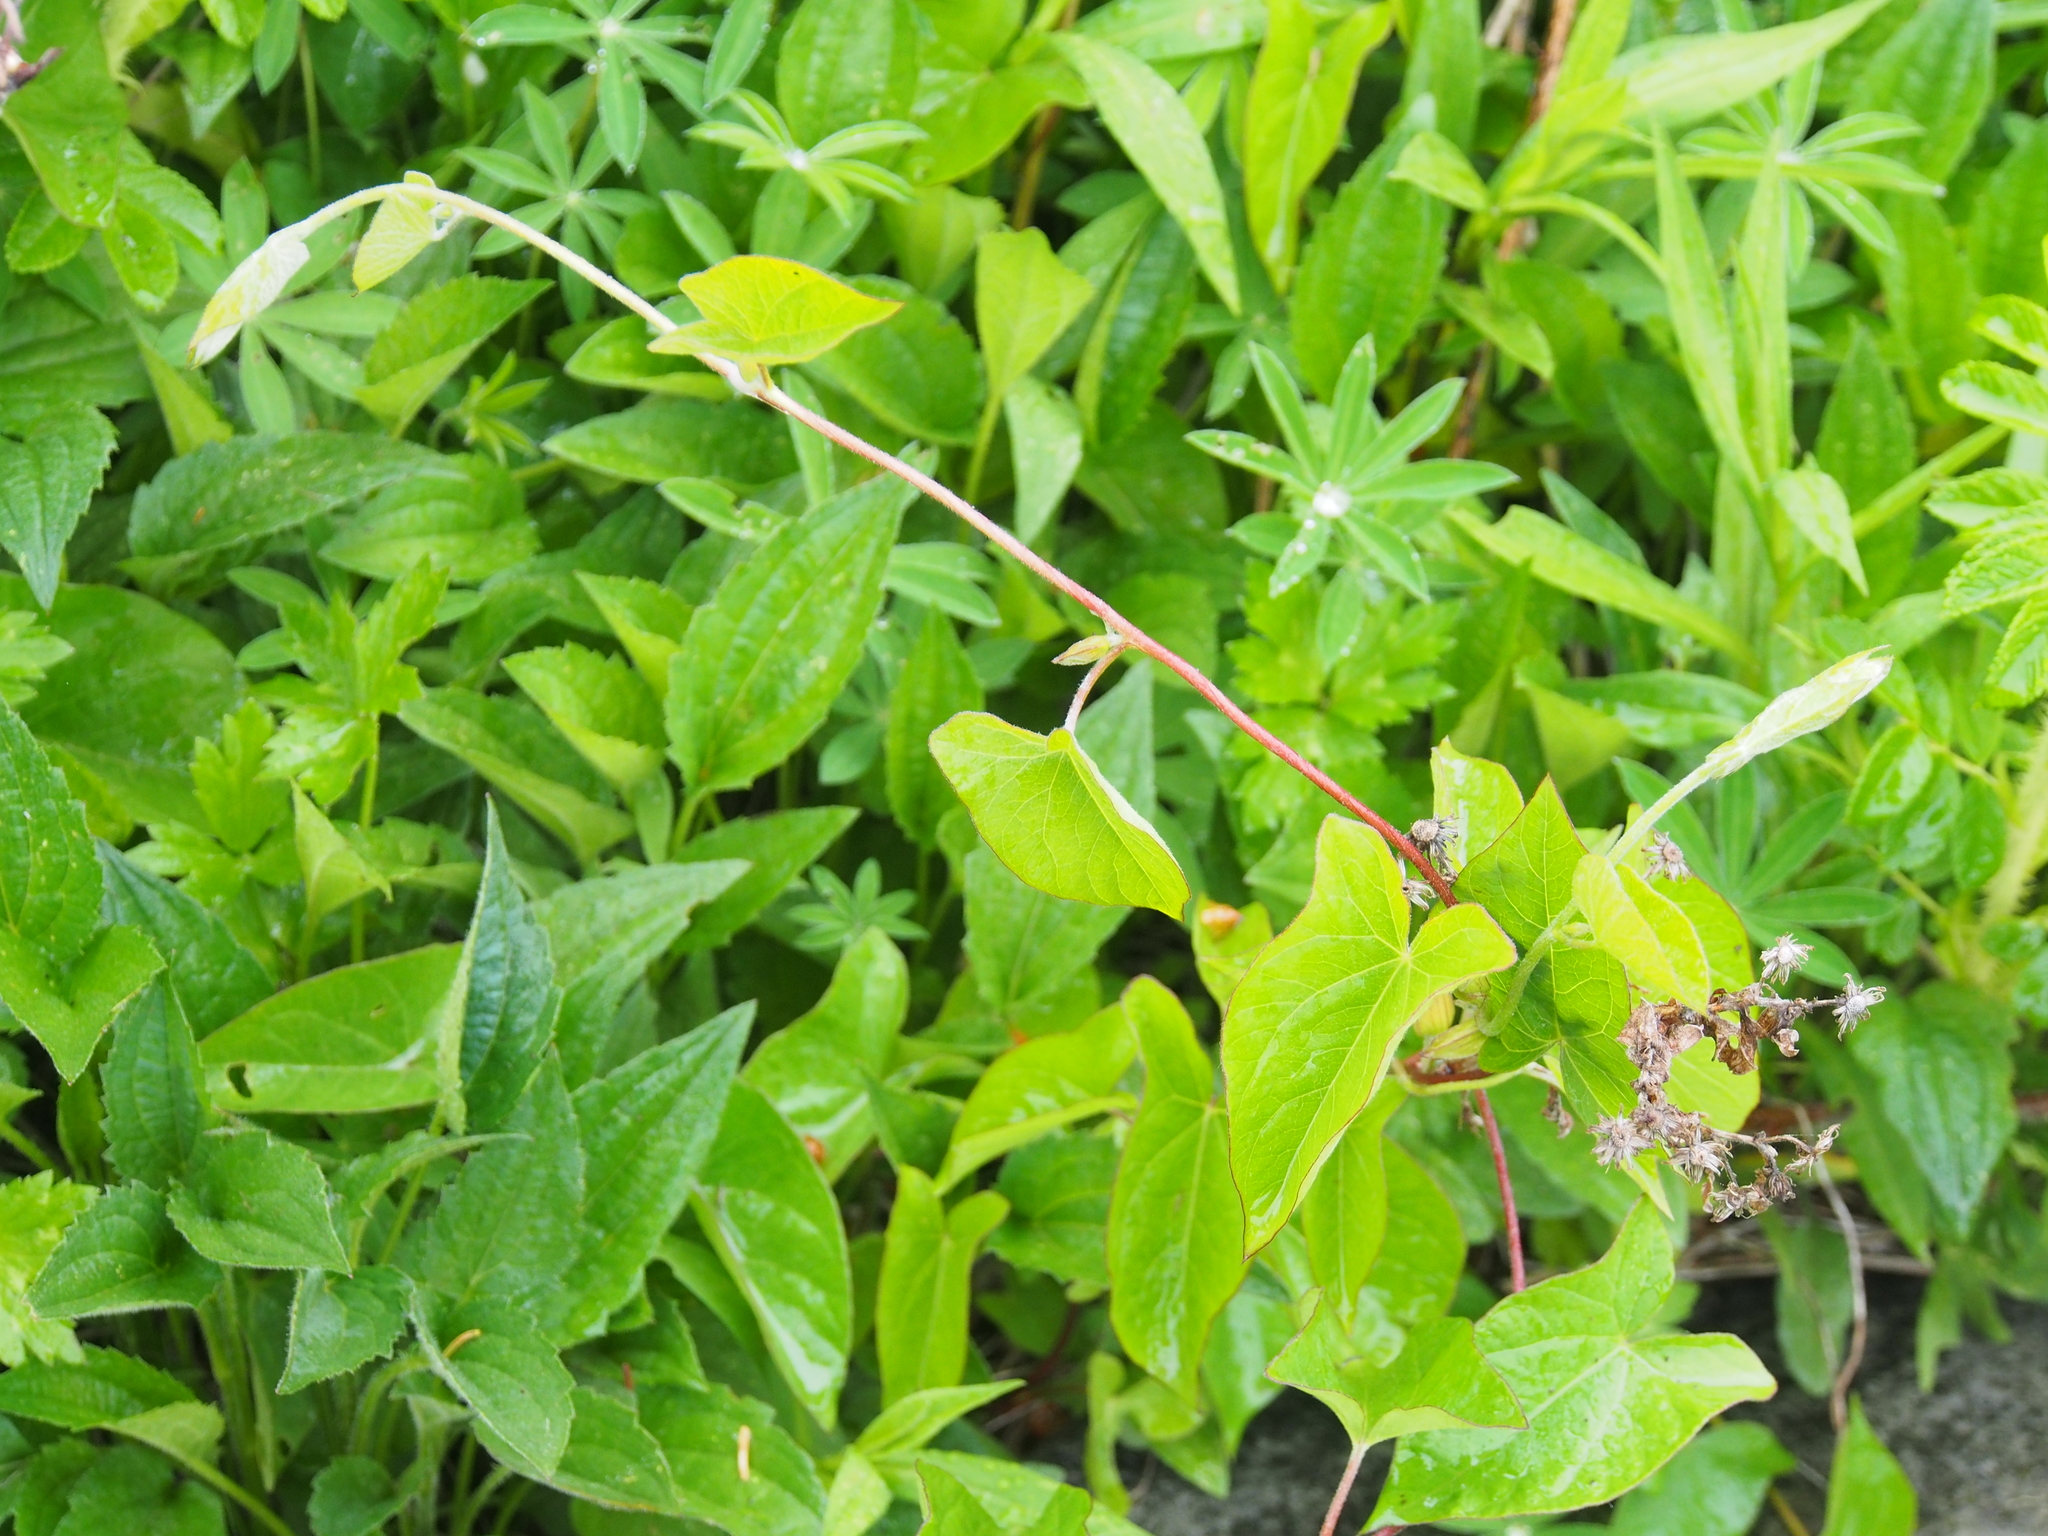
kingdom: Plantae
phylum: Tracheophyta
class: Magnoliopsida
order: Solanales
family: Convolvulaceae
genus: Calystegia
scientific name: Calystegia sepium
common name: Hedge bindweed
